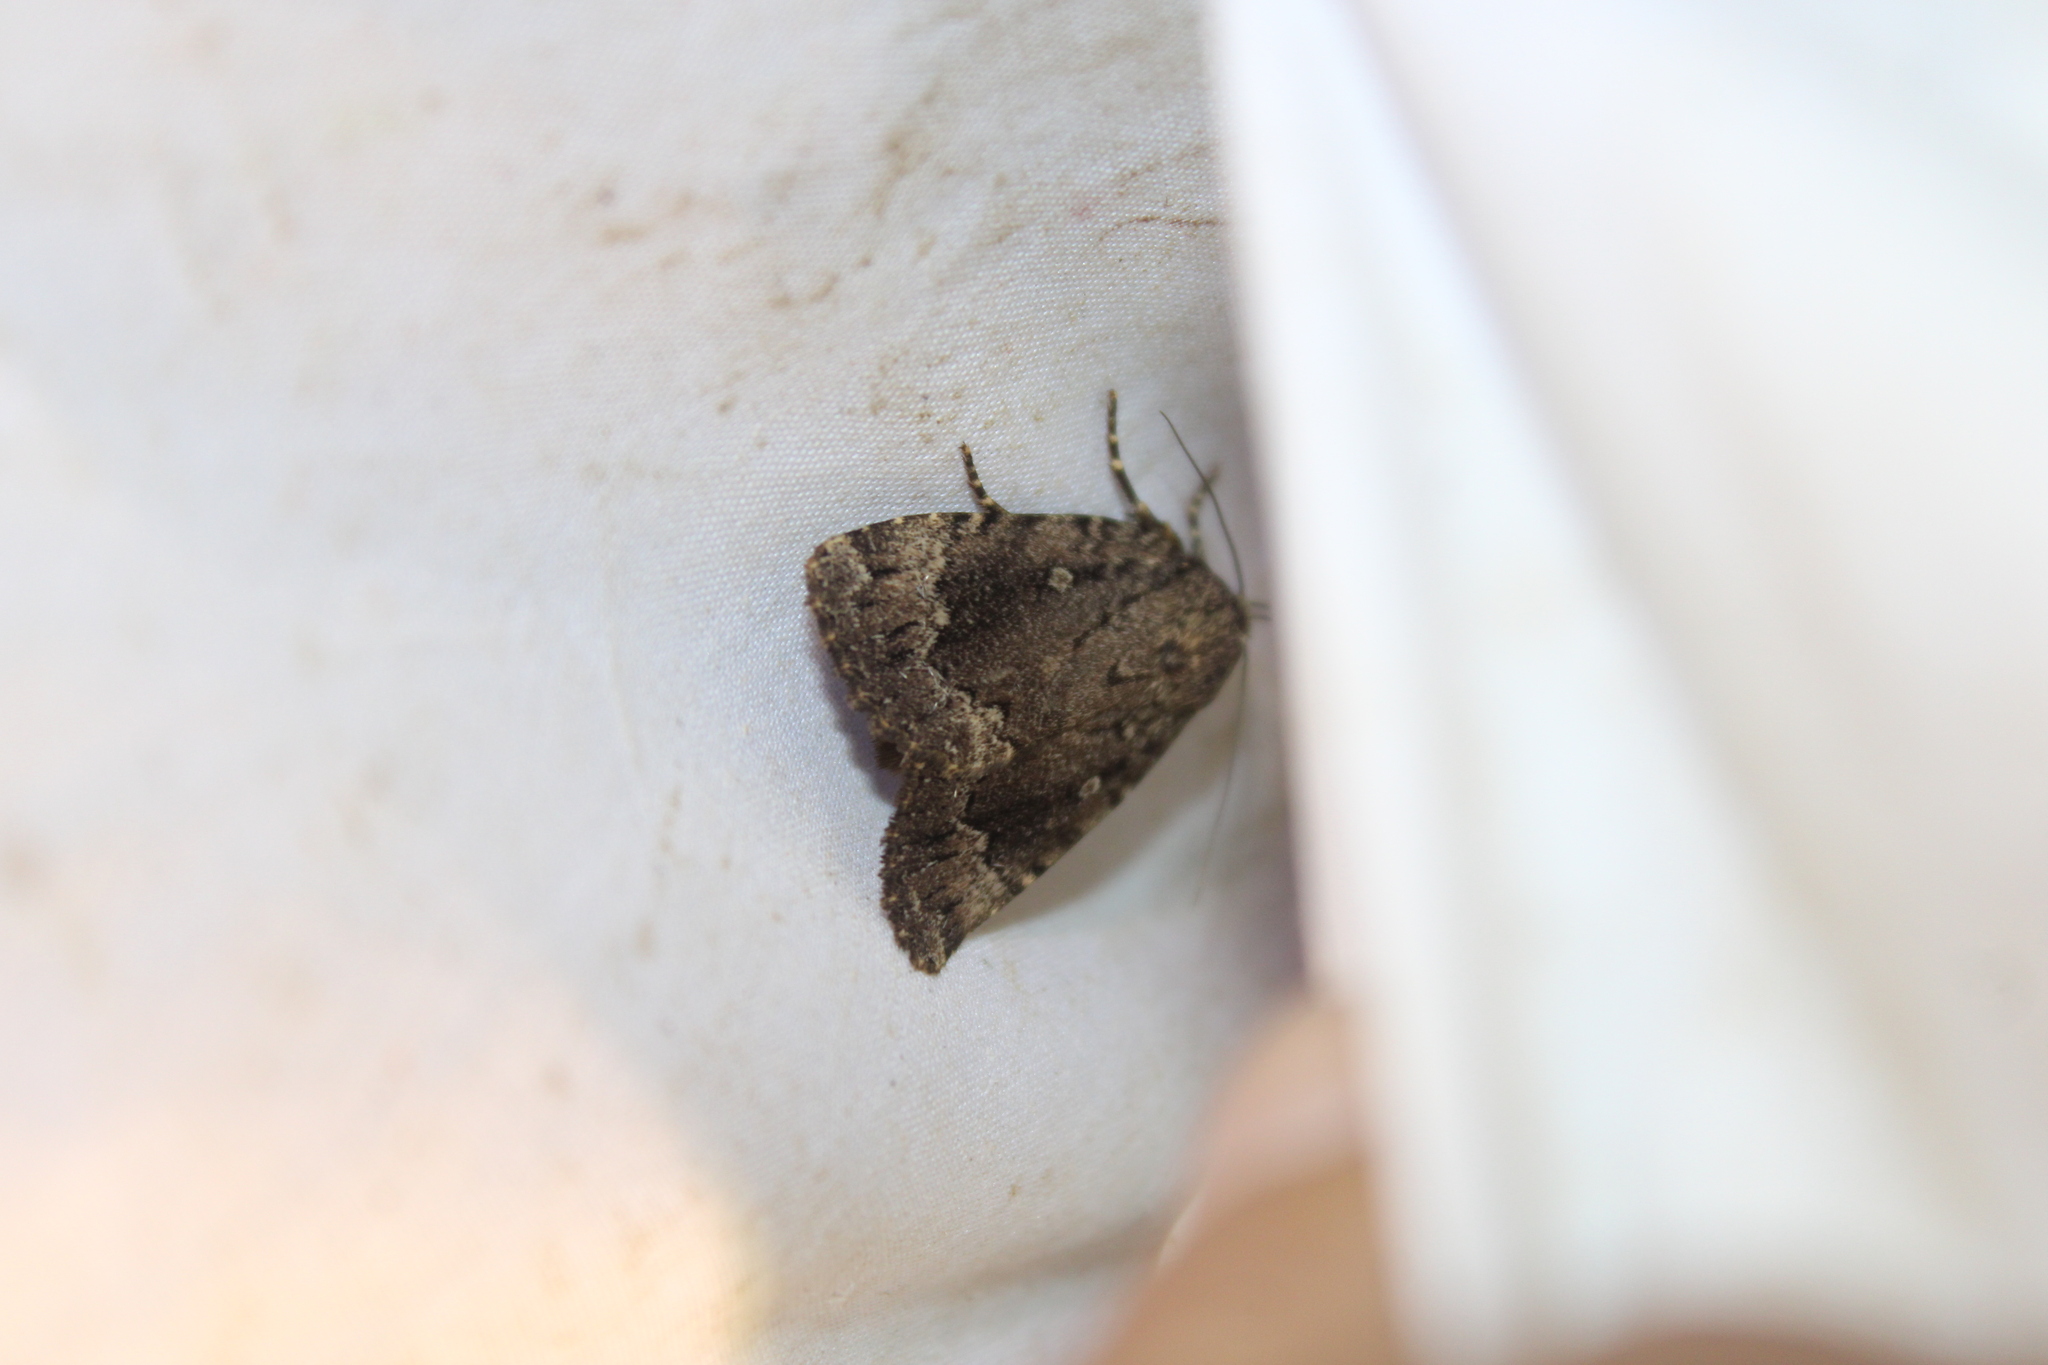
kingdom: Animalia
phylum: Arthropoda
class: Insecta
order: Lepidoptera
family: Noctuidae
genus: Amphipyra
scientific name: Amphipyra pyramidoides
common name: American copper underwing
